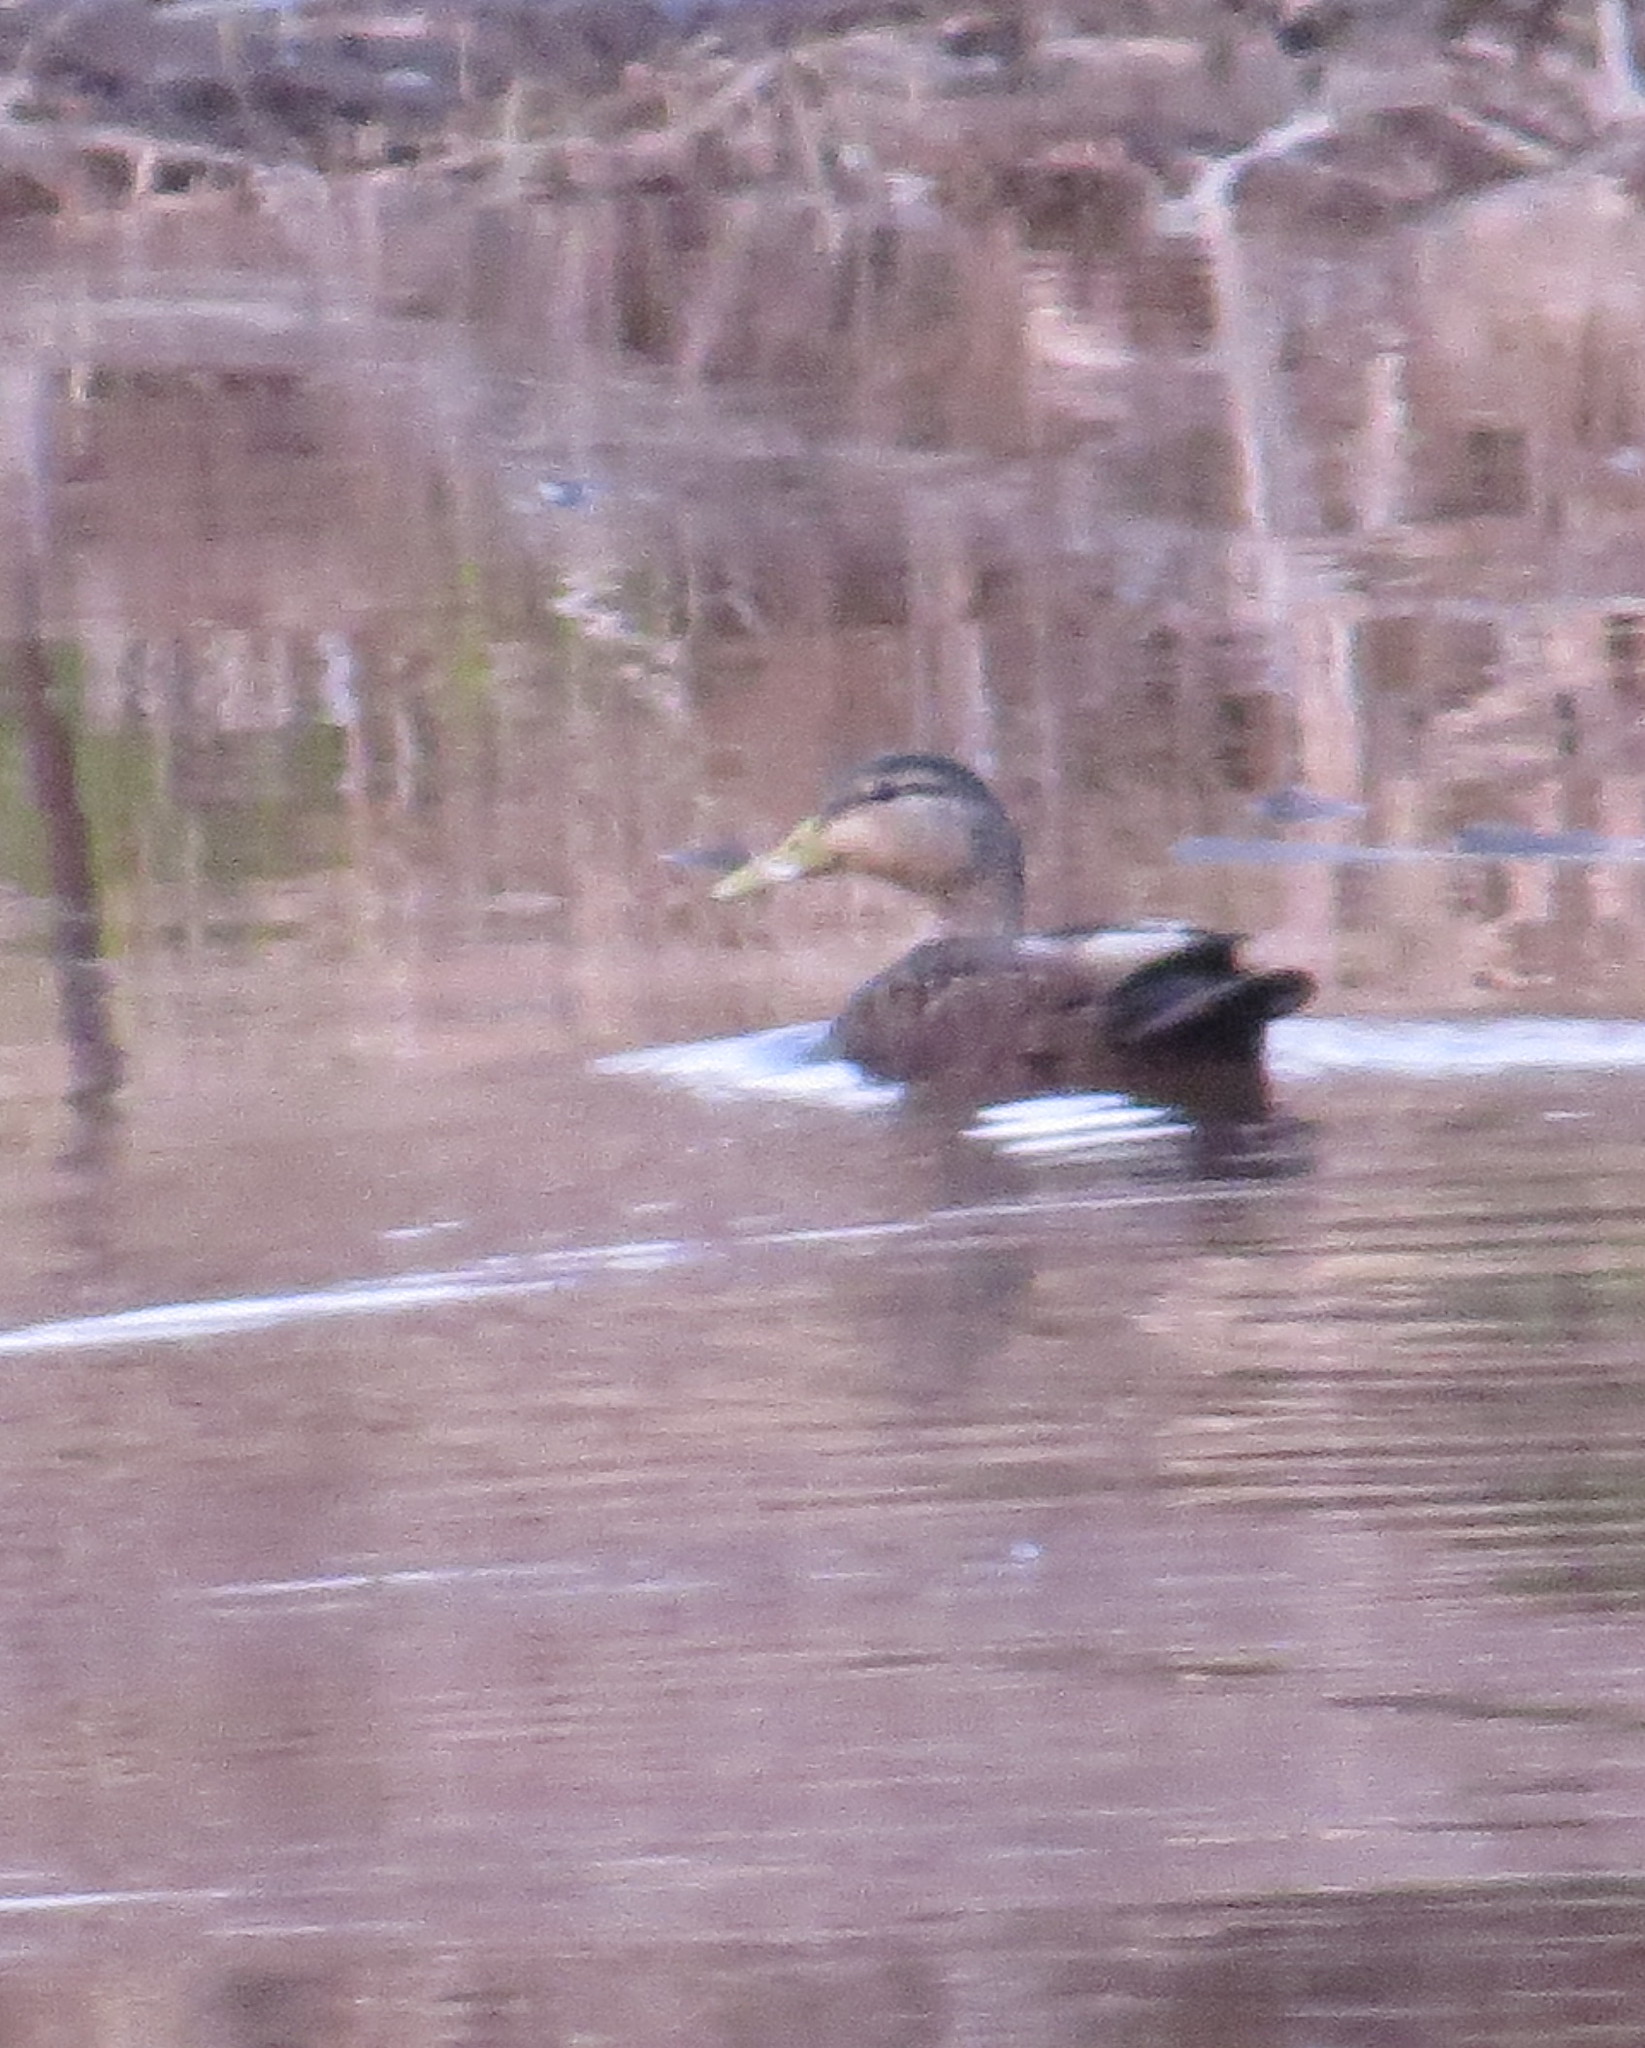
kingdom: Animalia
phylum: Chordata
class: Aves
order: Anseriformes
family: Anatidae
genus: Anas
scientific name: Anas rubripes
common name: American black duck
